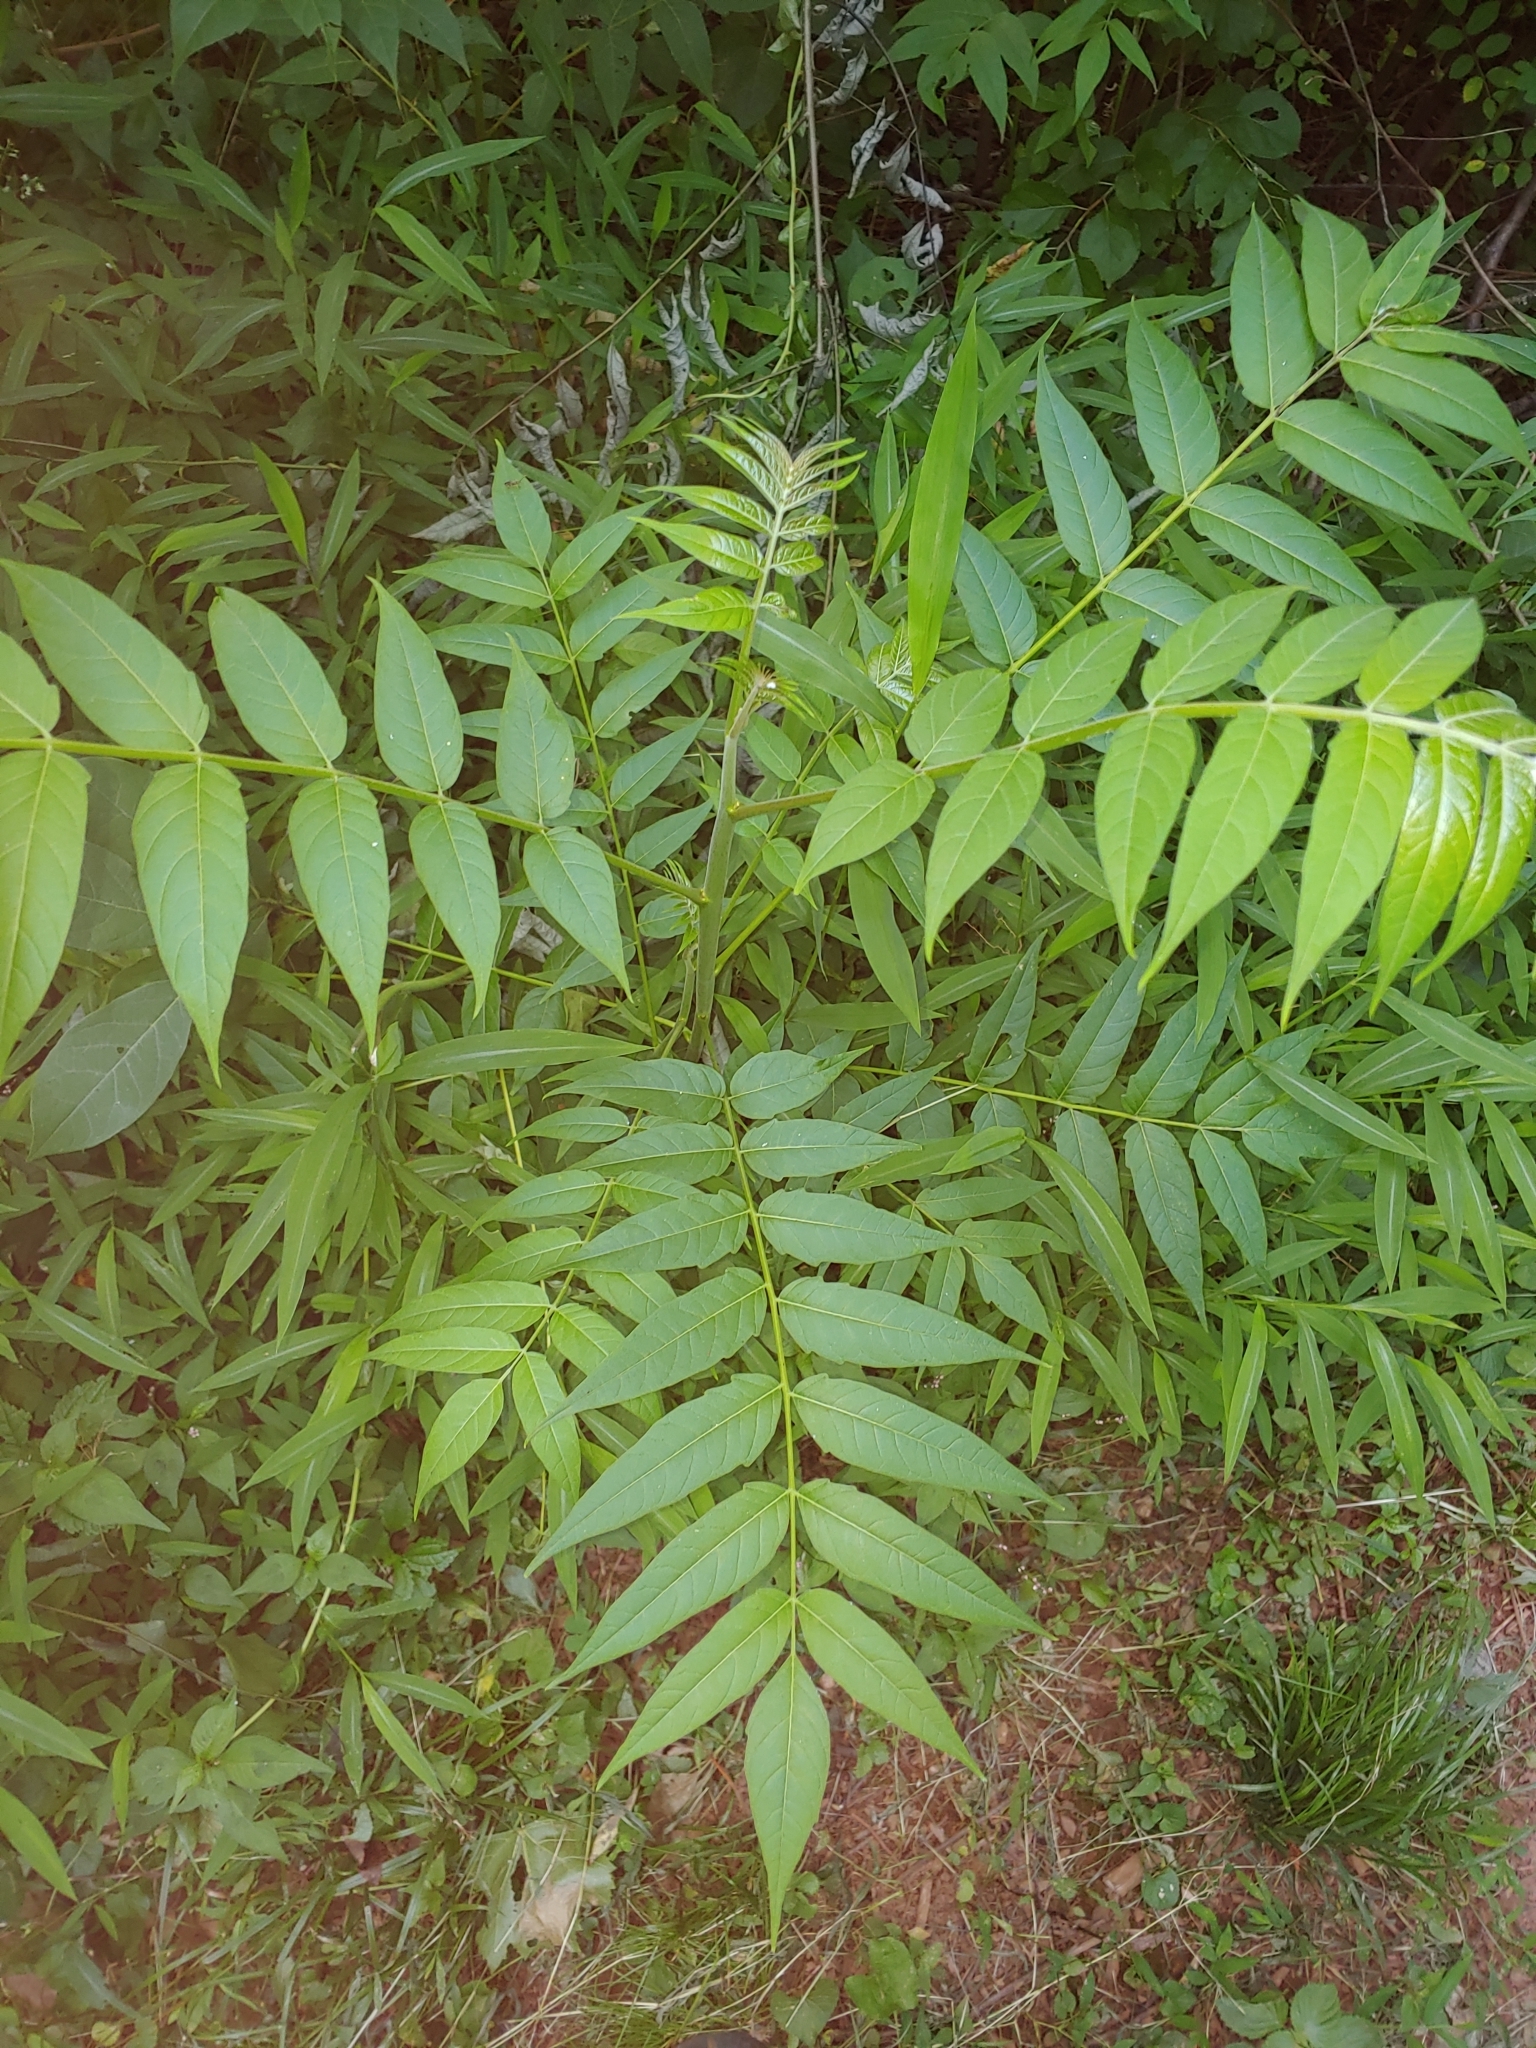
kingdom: Plantae
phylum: Tracheophyta
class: Magnoliopsida
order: Sapindales
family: Simaroubaceae
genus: Ailanthus
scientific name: Ailanthus altissima
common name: Tree-of-heaven
